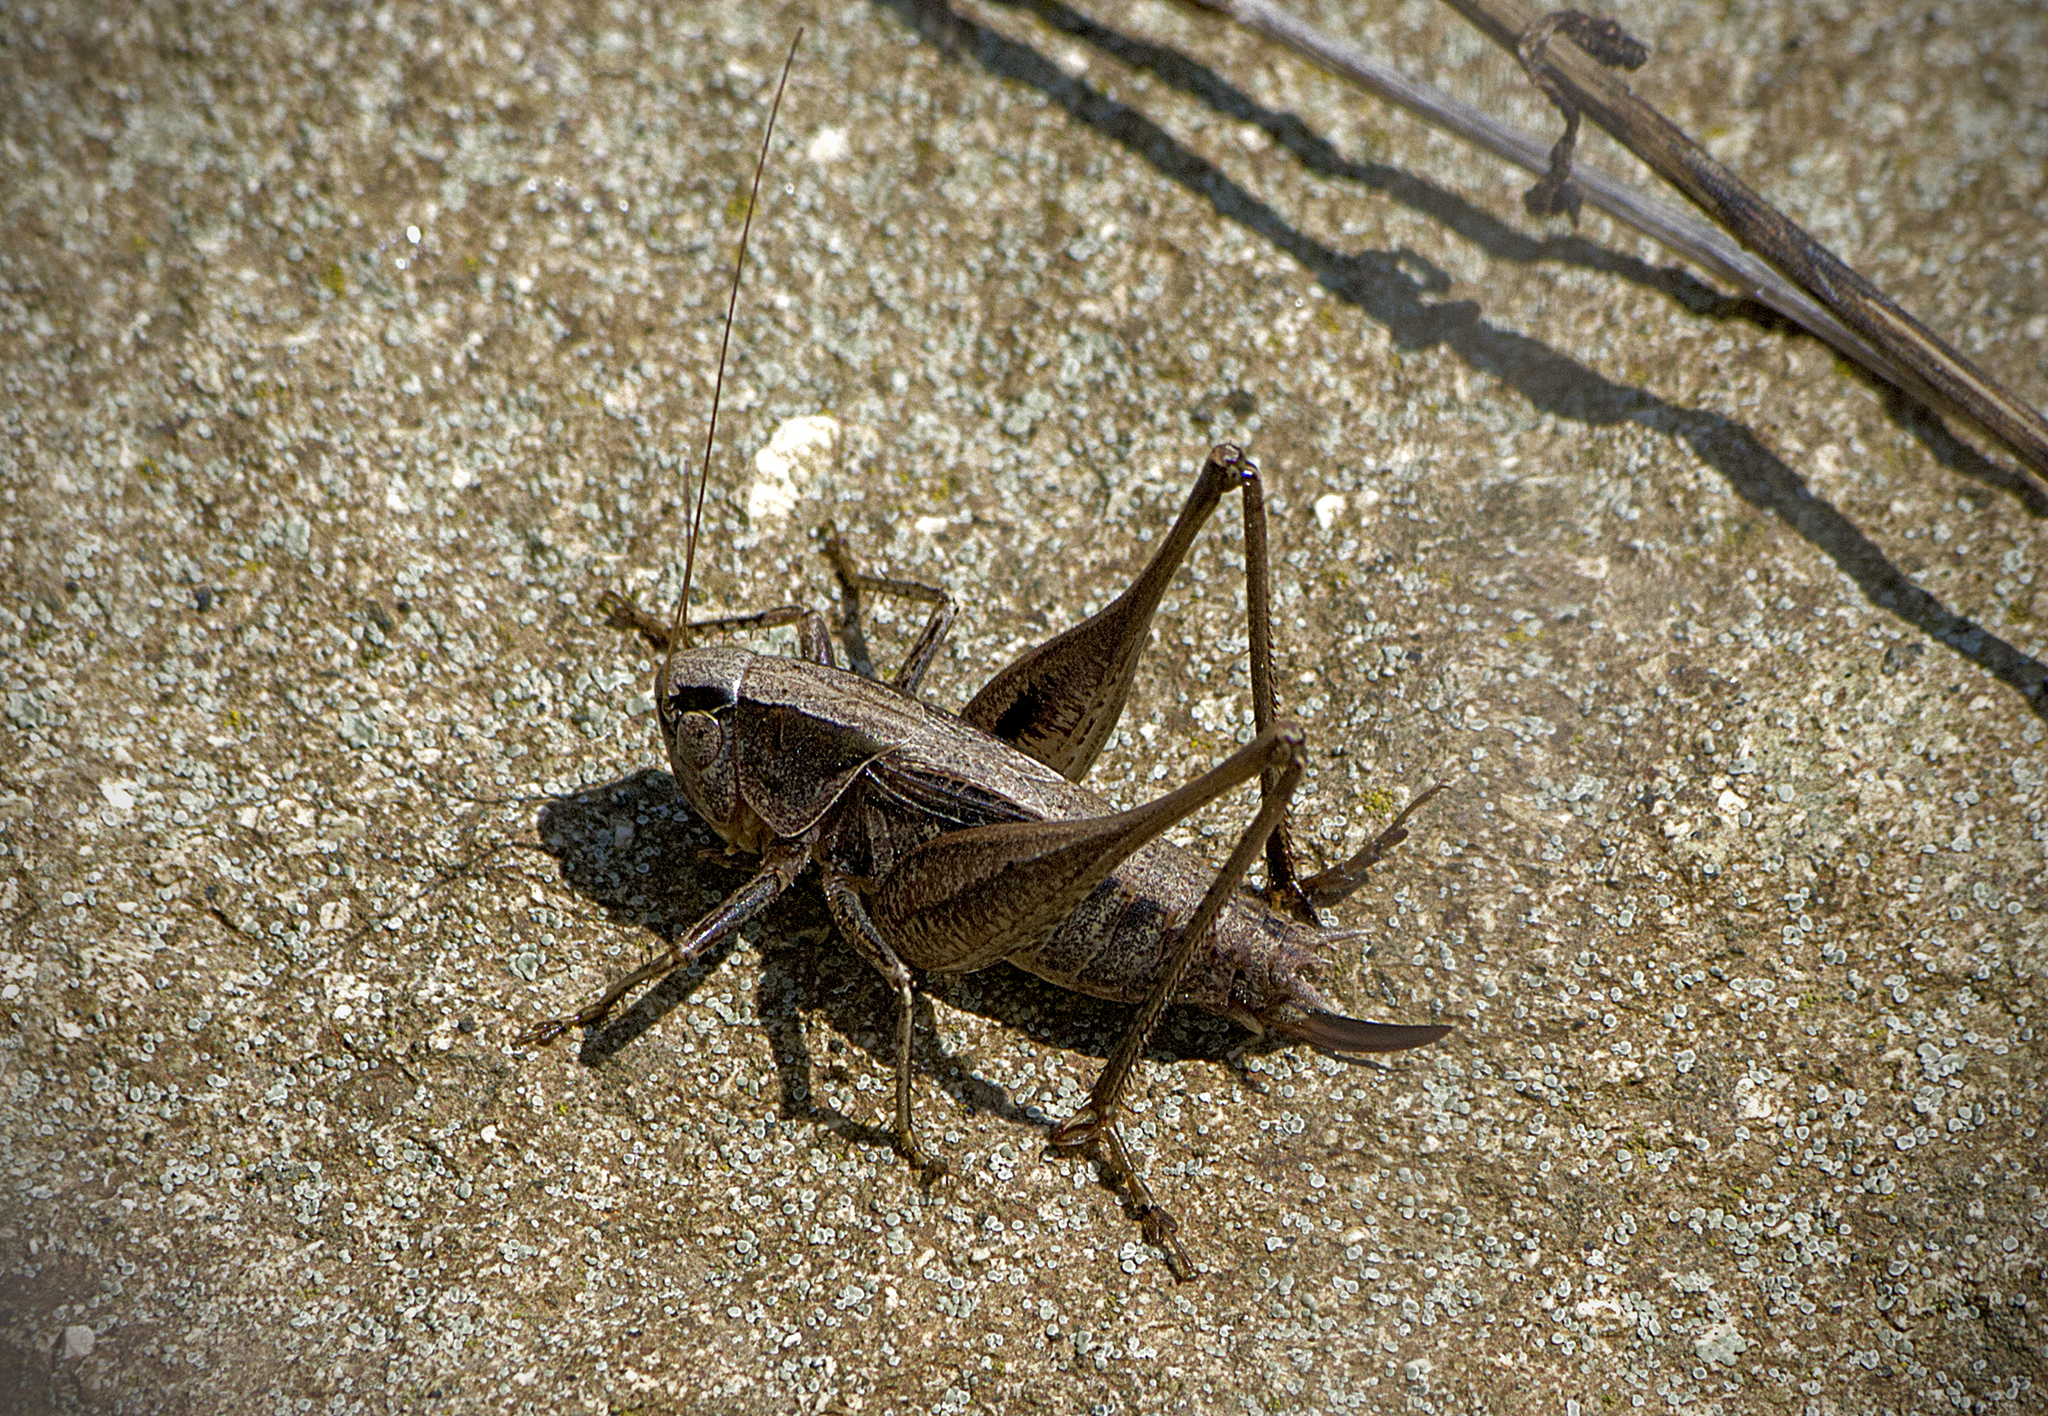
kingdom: Animalia
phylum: Arthropoda
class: Insecta
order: Orthoptera
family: Tettigoniidae
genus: Incertana
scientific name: Incertana incerta
